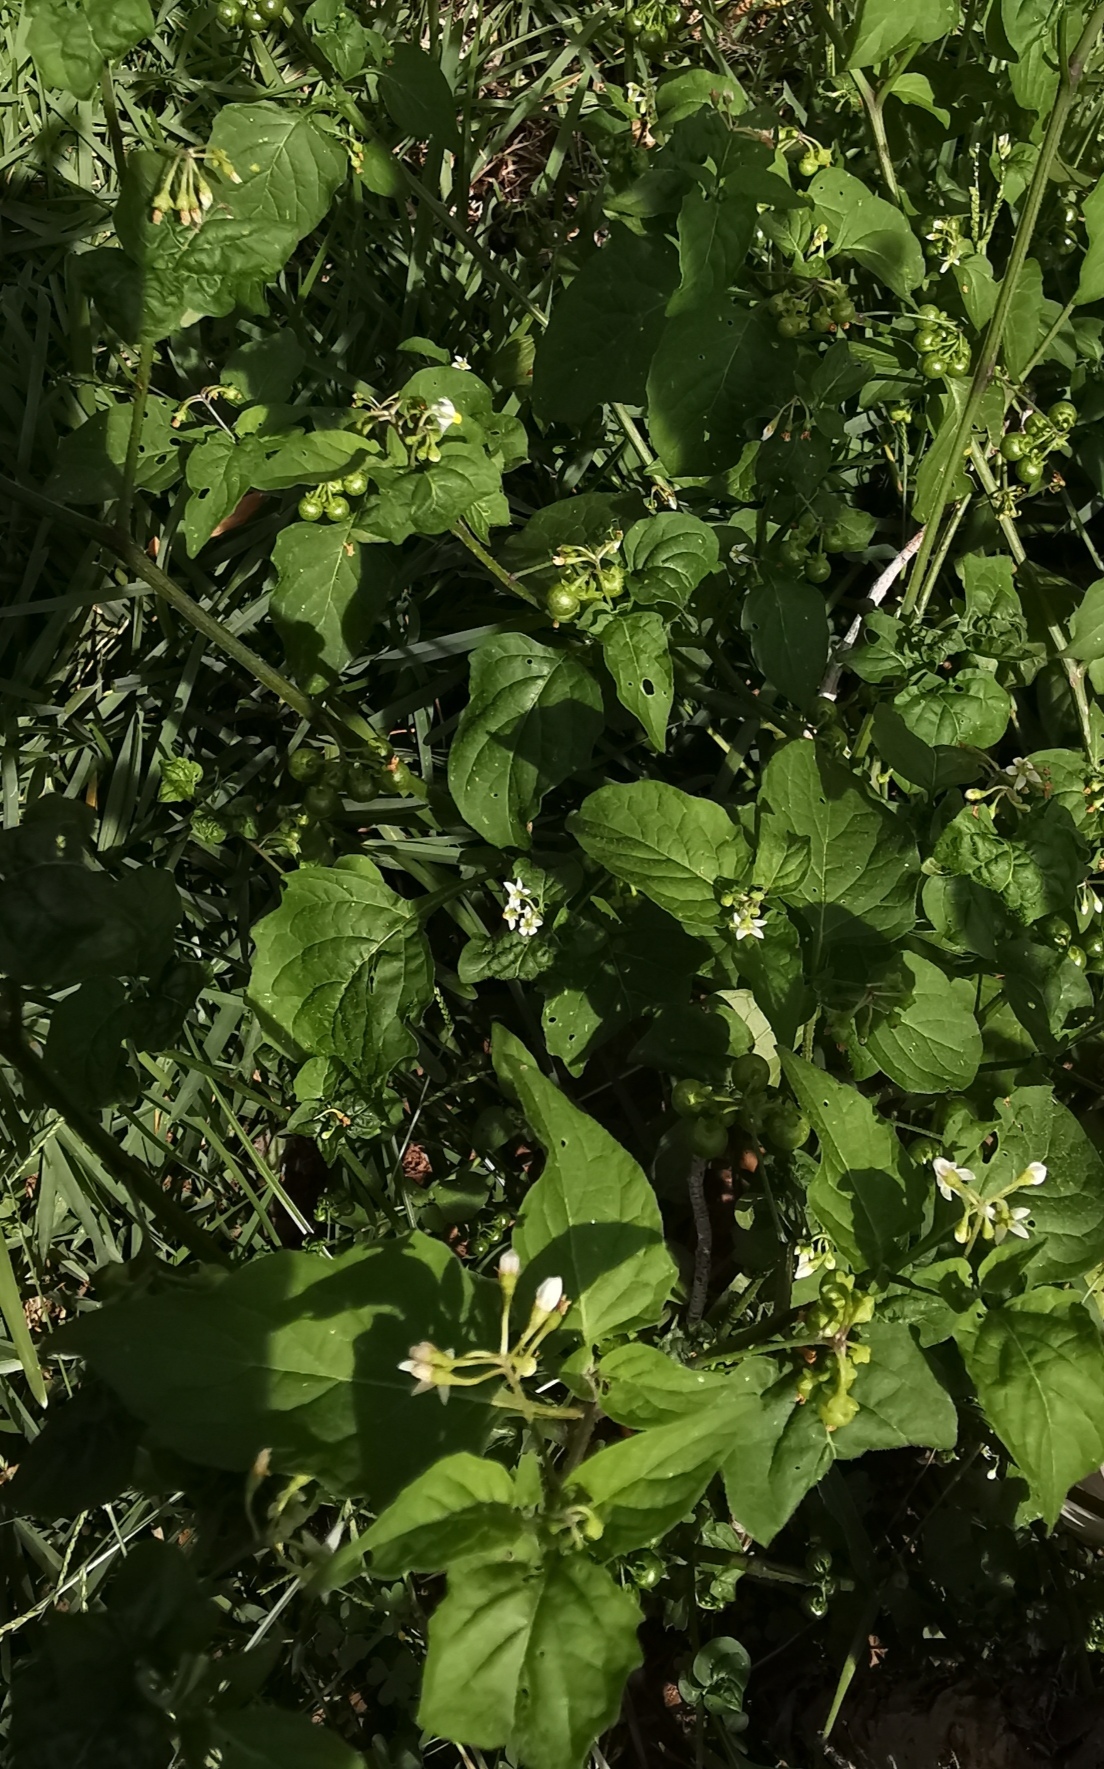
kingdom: Plantae
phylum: Tracheophyta
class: Magnoliopsida
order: Solanales
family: Solanaceae
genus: Solanum
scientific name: Solanum americanum
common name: American black nightshade
